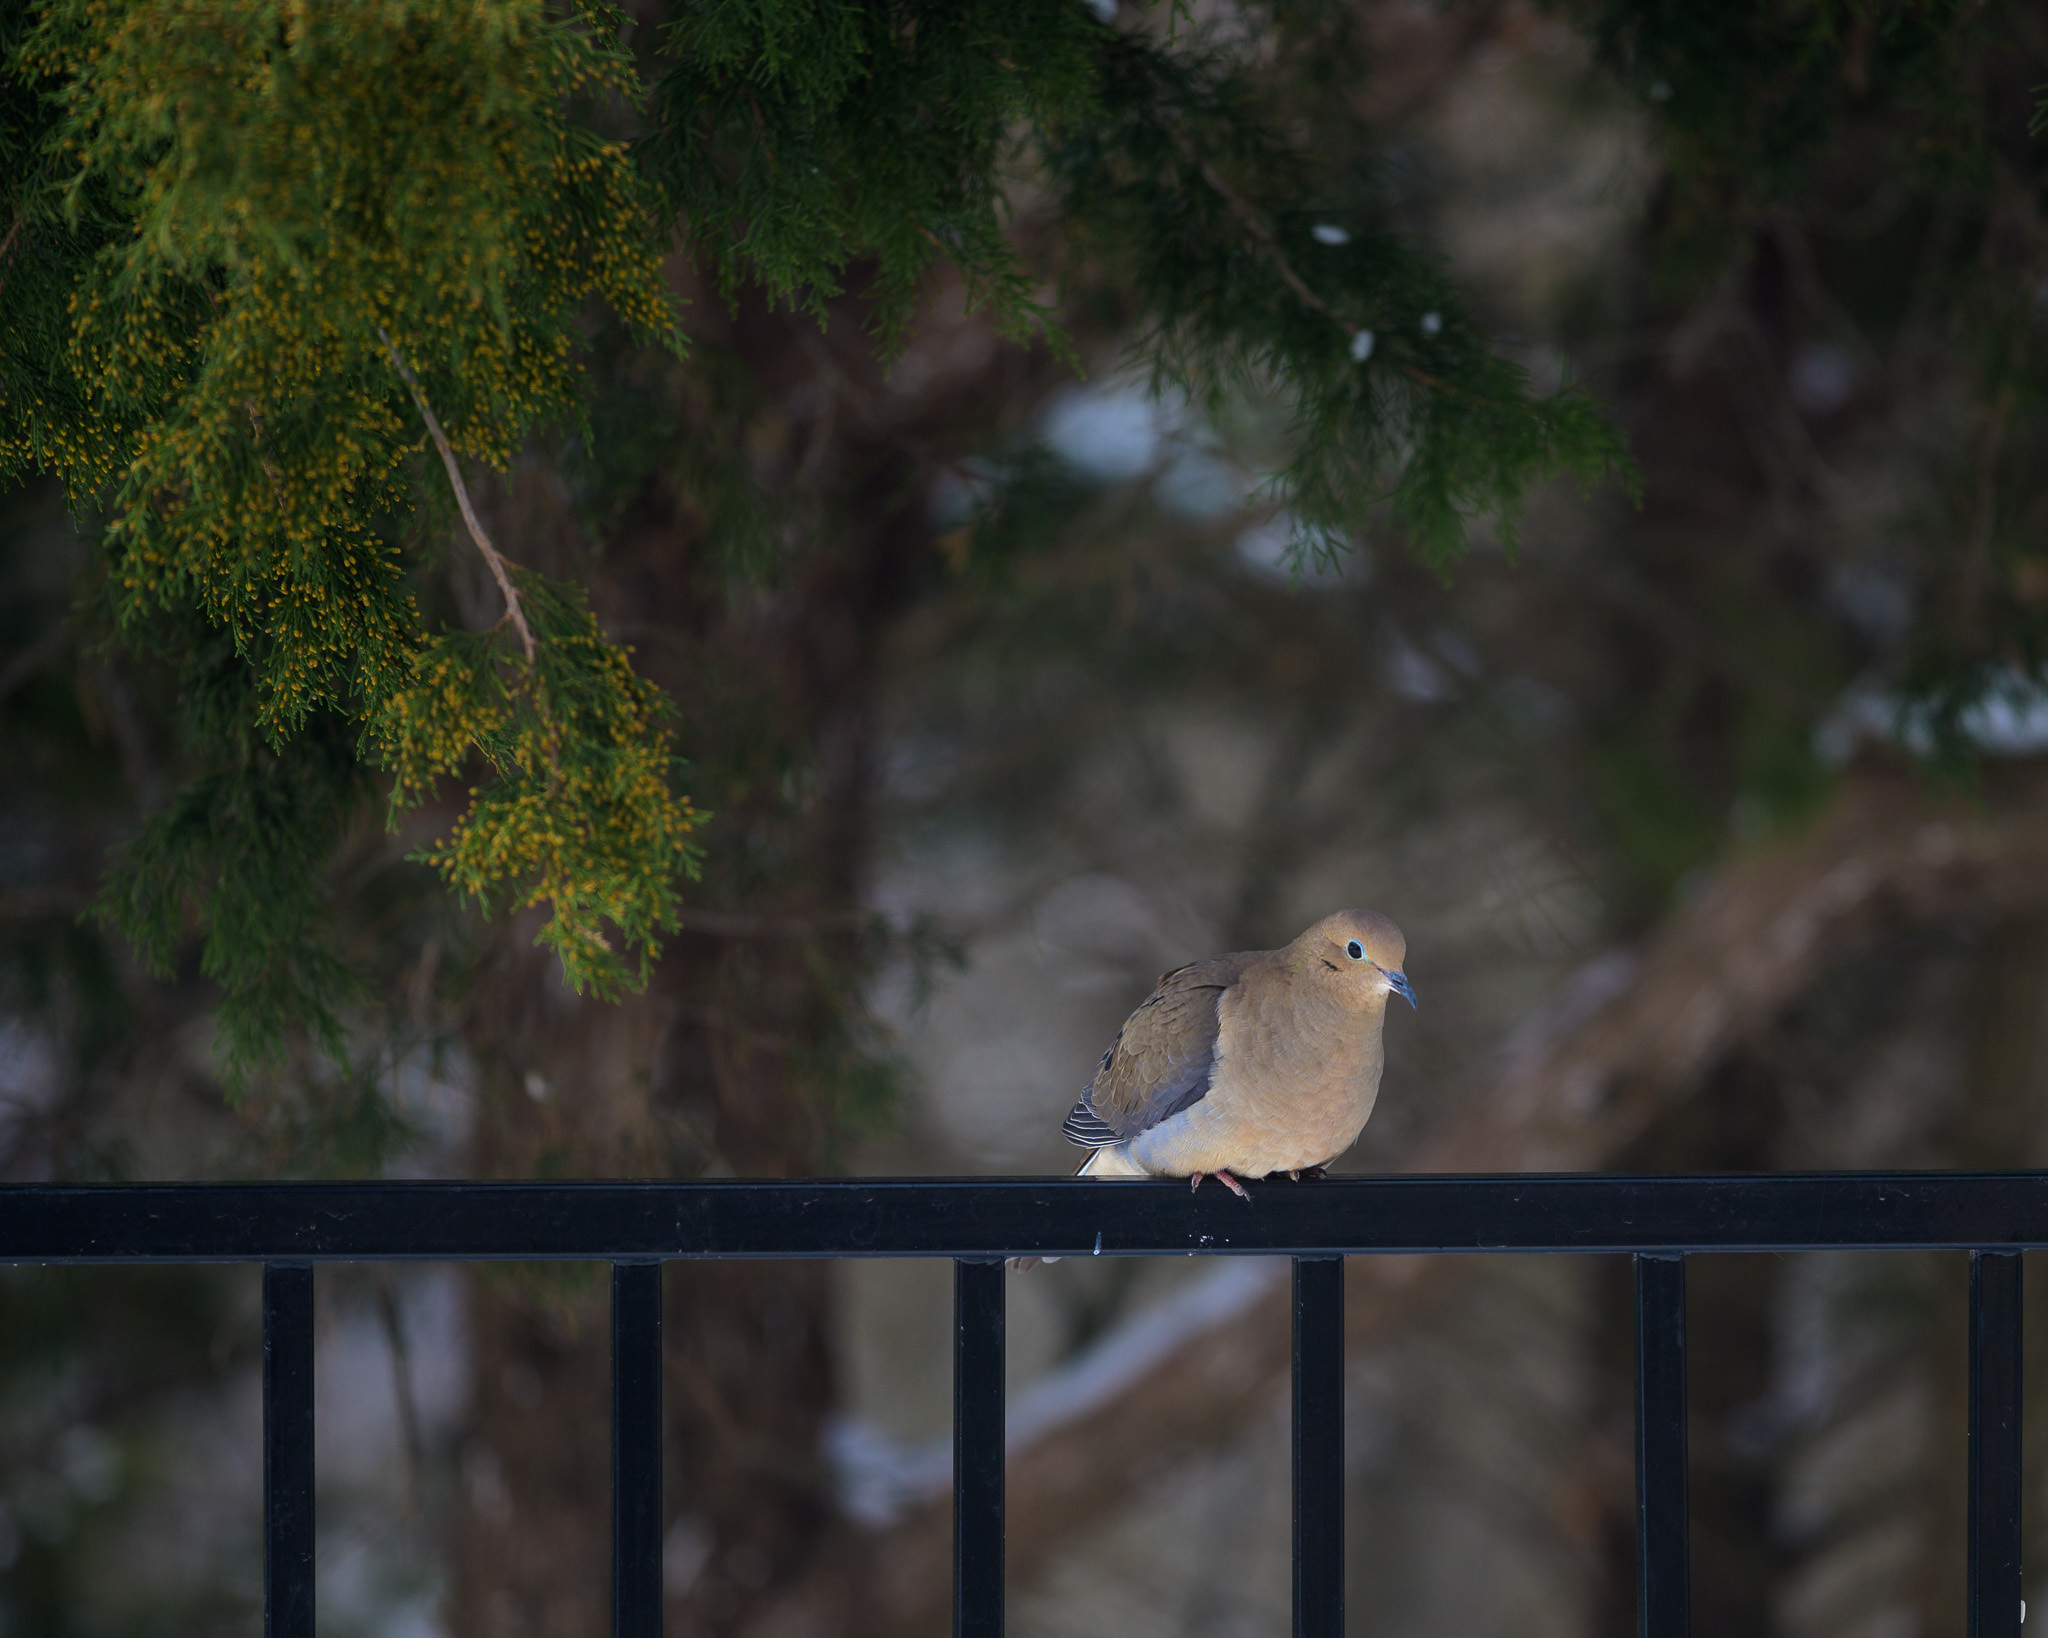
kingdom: Animalia
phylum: Chordata
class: Aves
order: Columbiformes
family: Columbidae
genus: Zenaida
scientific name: Zenaida macroura
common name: Mourning dove
